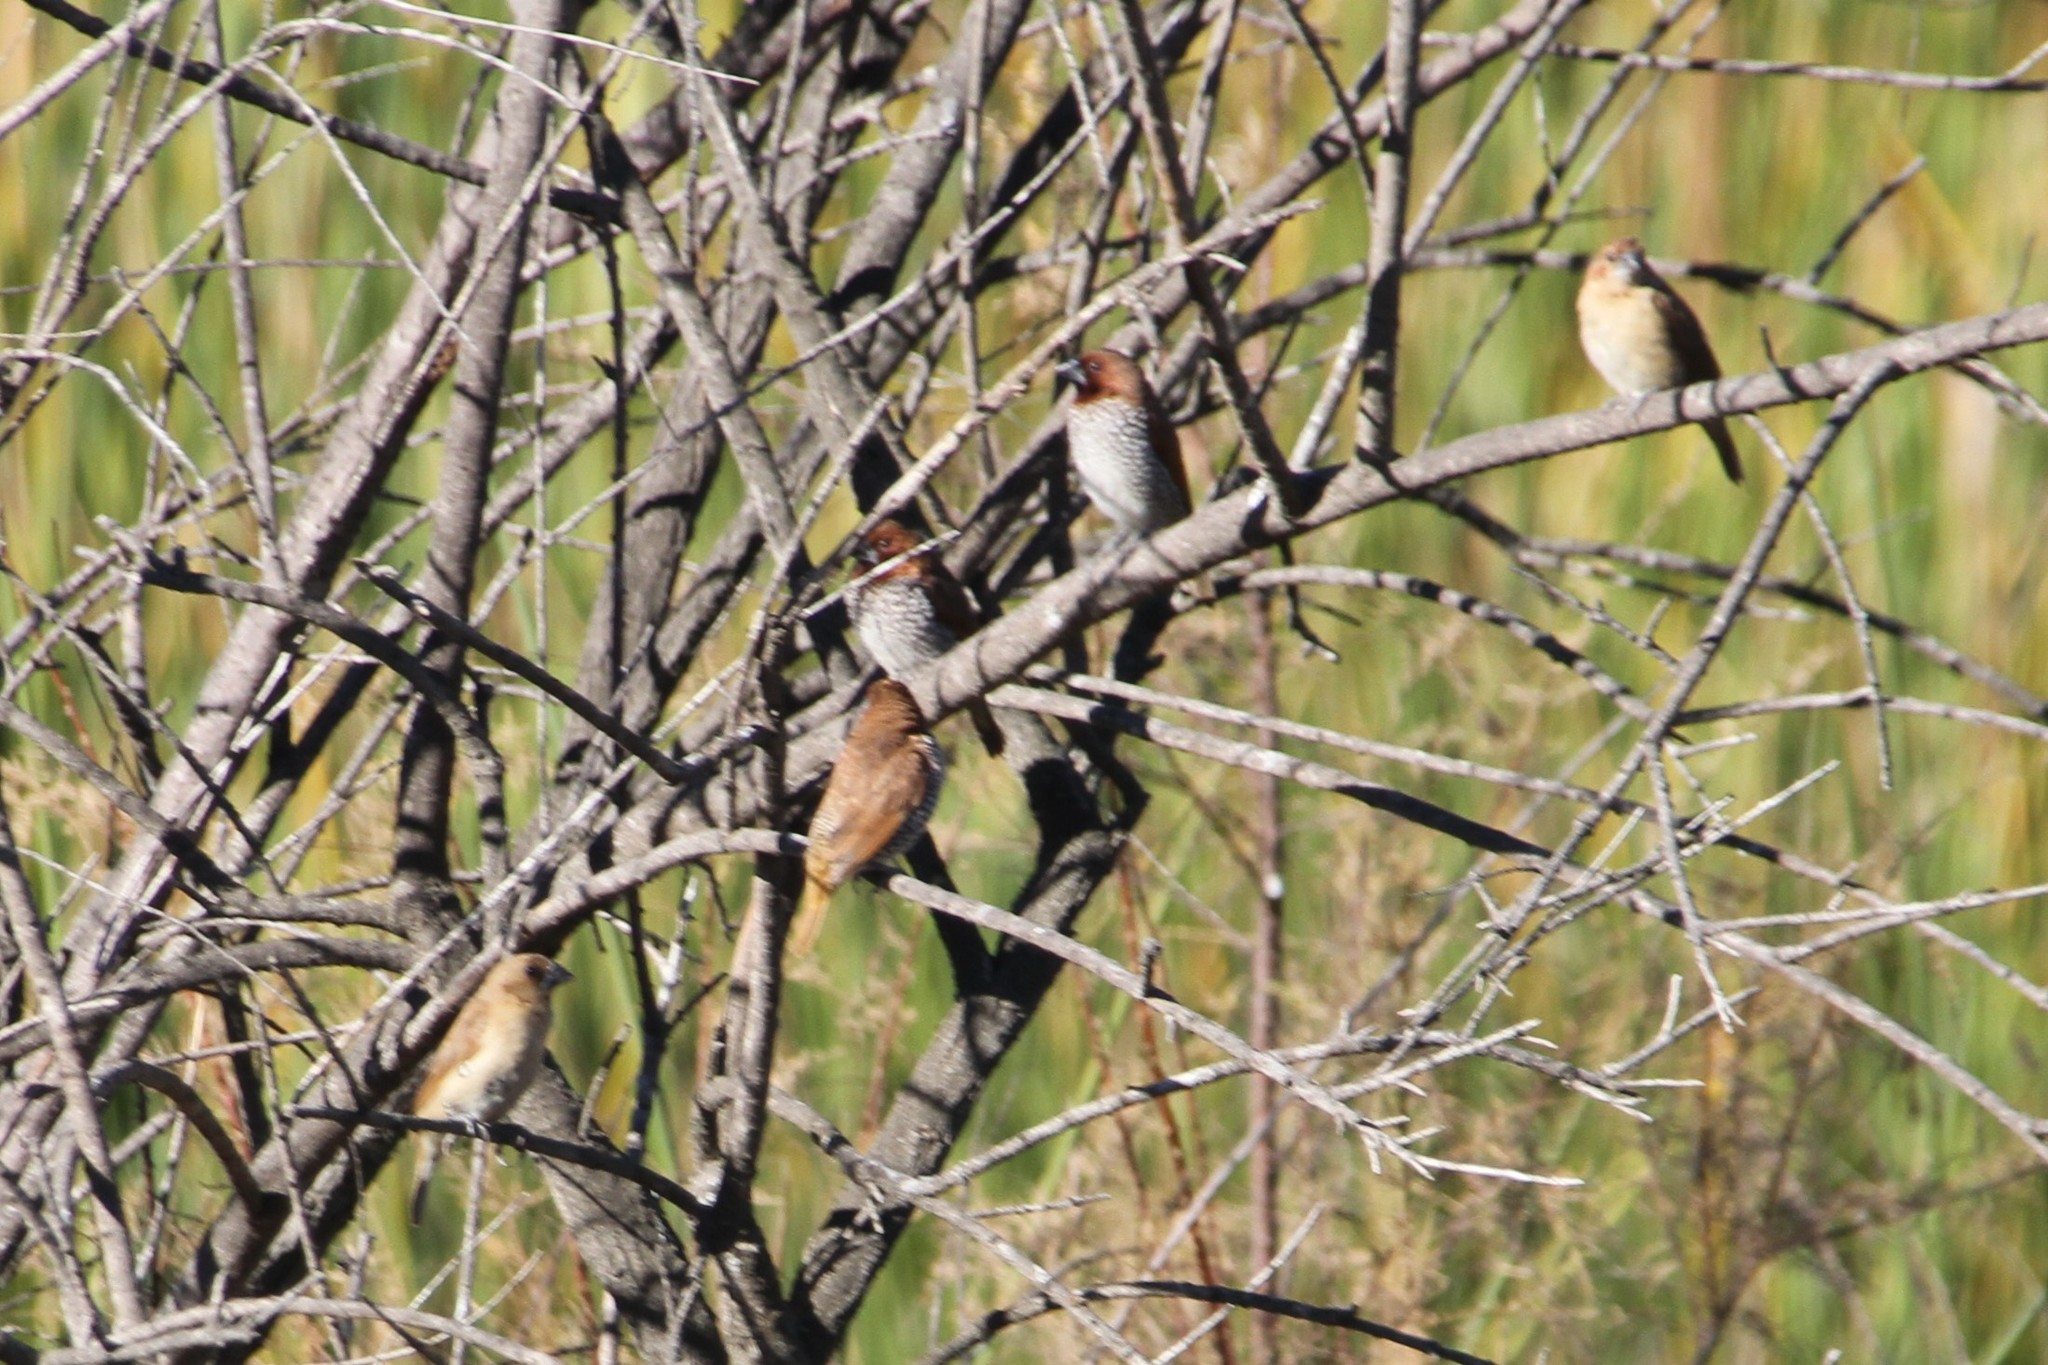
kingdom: Animalia
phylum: Chordata
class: Aves
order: Passeriformes
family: Estrildidae
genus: Lonchura
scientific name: Lonchura punctulata
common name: Scaly-breasted munia
